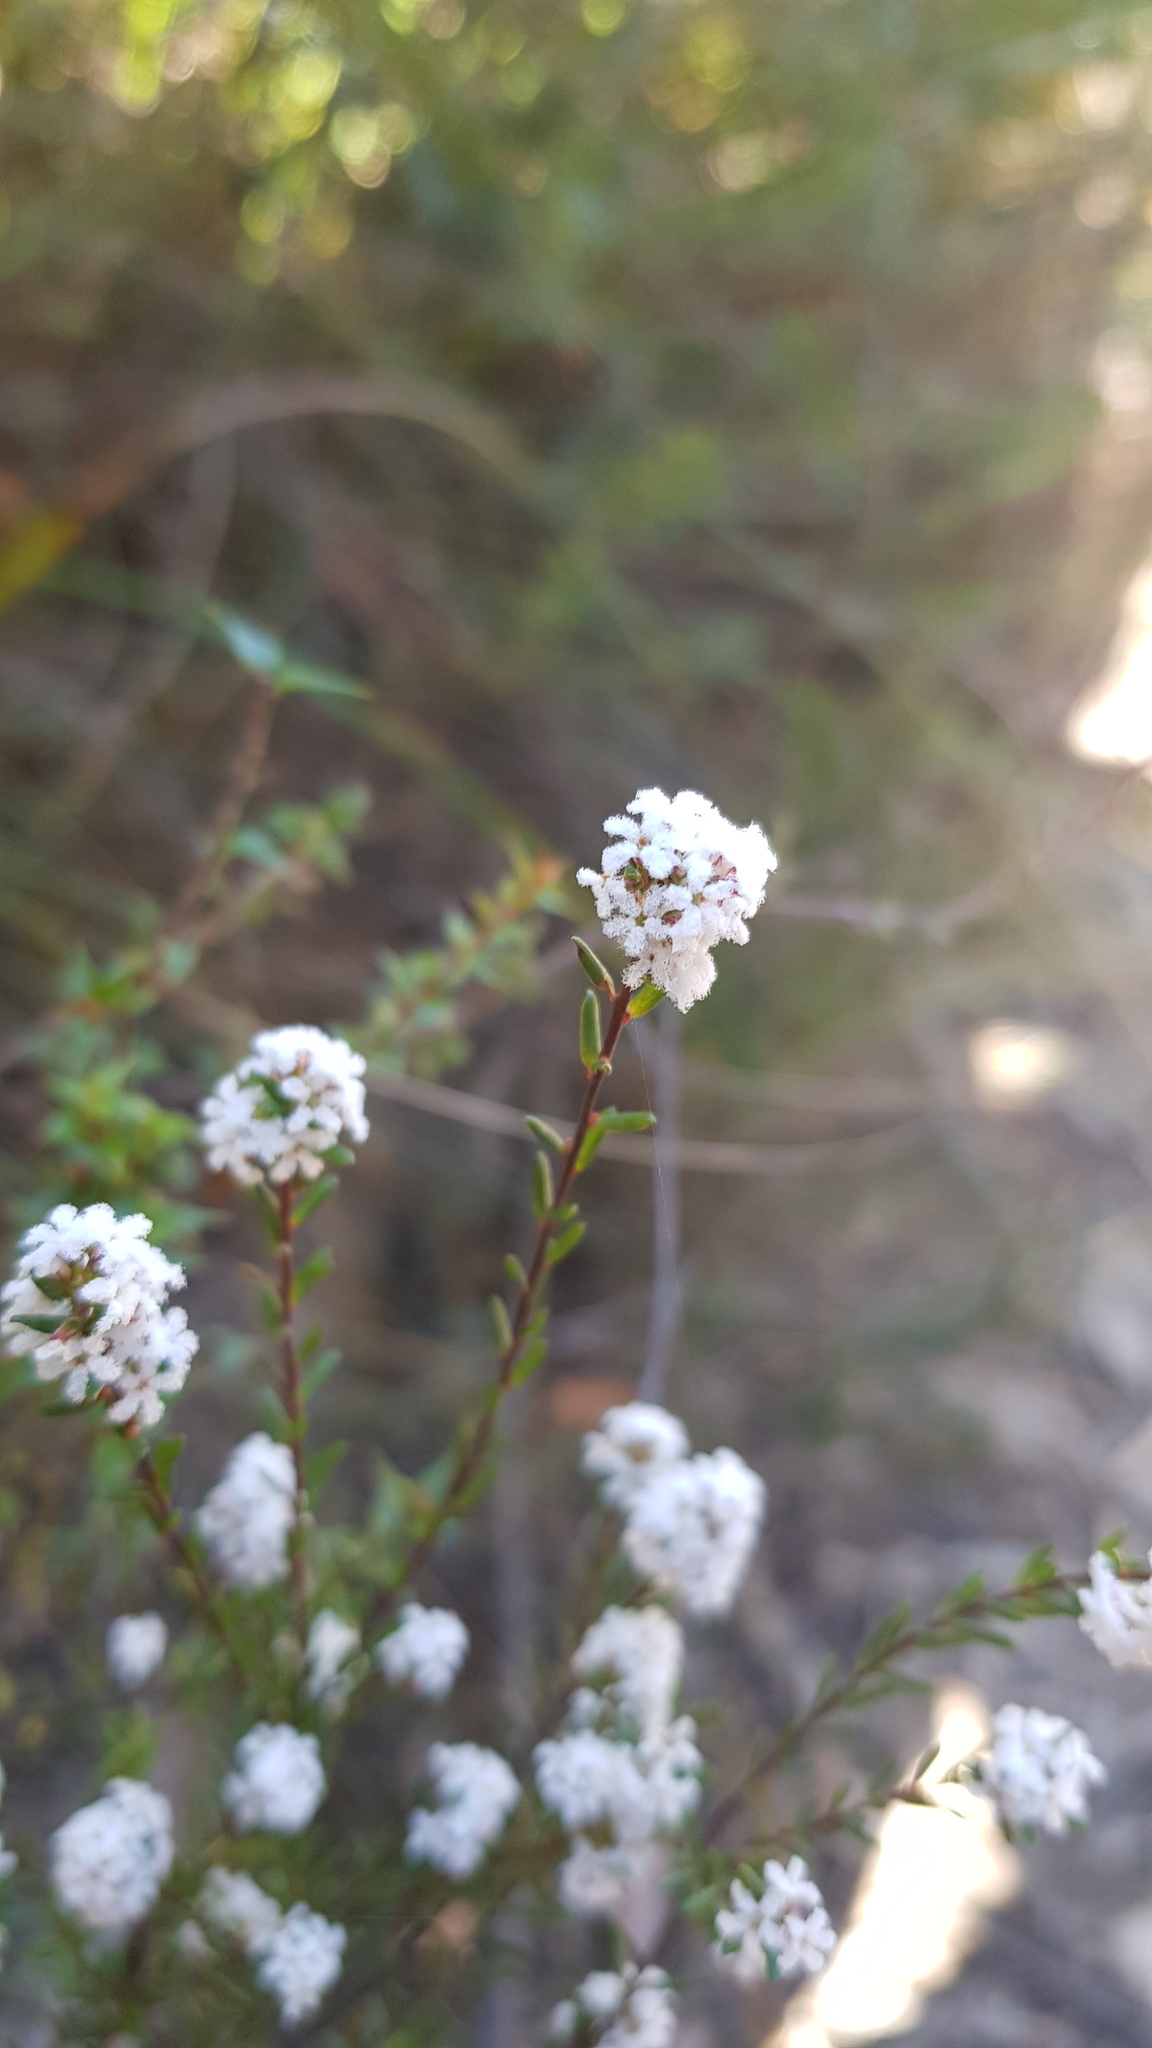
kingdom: Plantae
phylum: Tracheophyta
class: Magnoliopsida
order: Ericales
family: Ericaceae
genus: Leucopogon
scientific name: Leucopogon microphyllus
